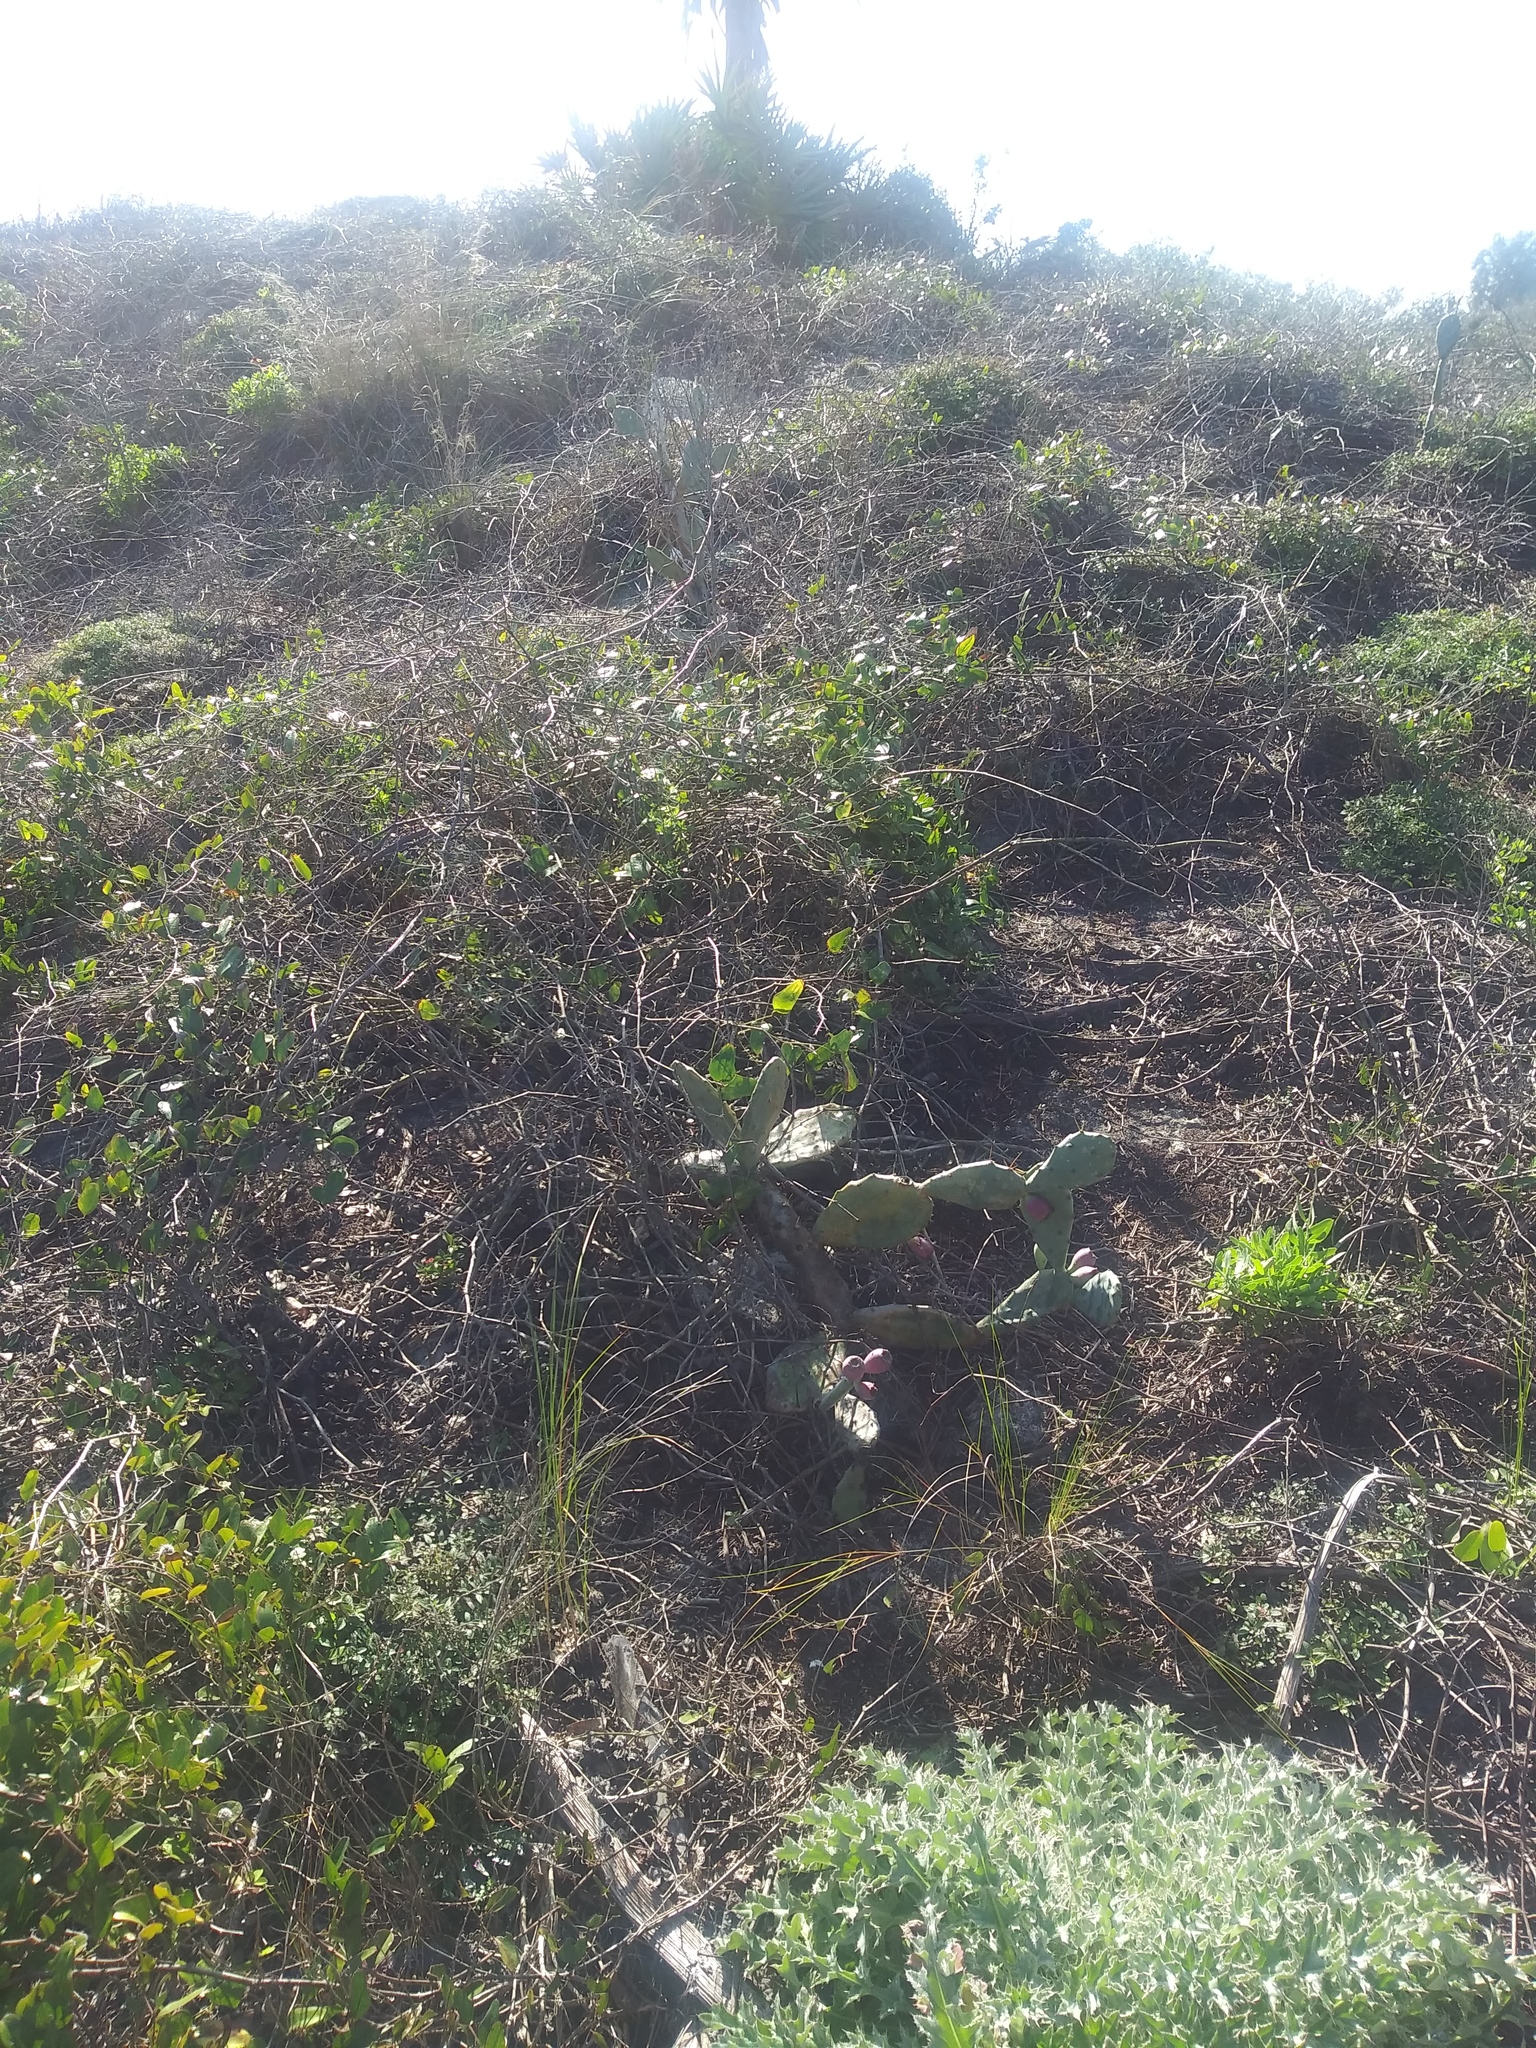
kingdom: Plantae
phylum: Tracheophyta
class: Magnoliopsida
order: Caryophyllales
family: Cactaceae
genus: Opuntia
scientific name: Opuntia stricta
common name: Erect pricklypear
